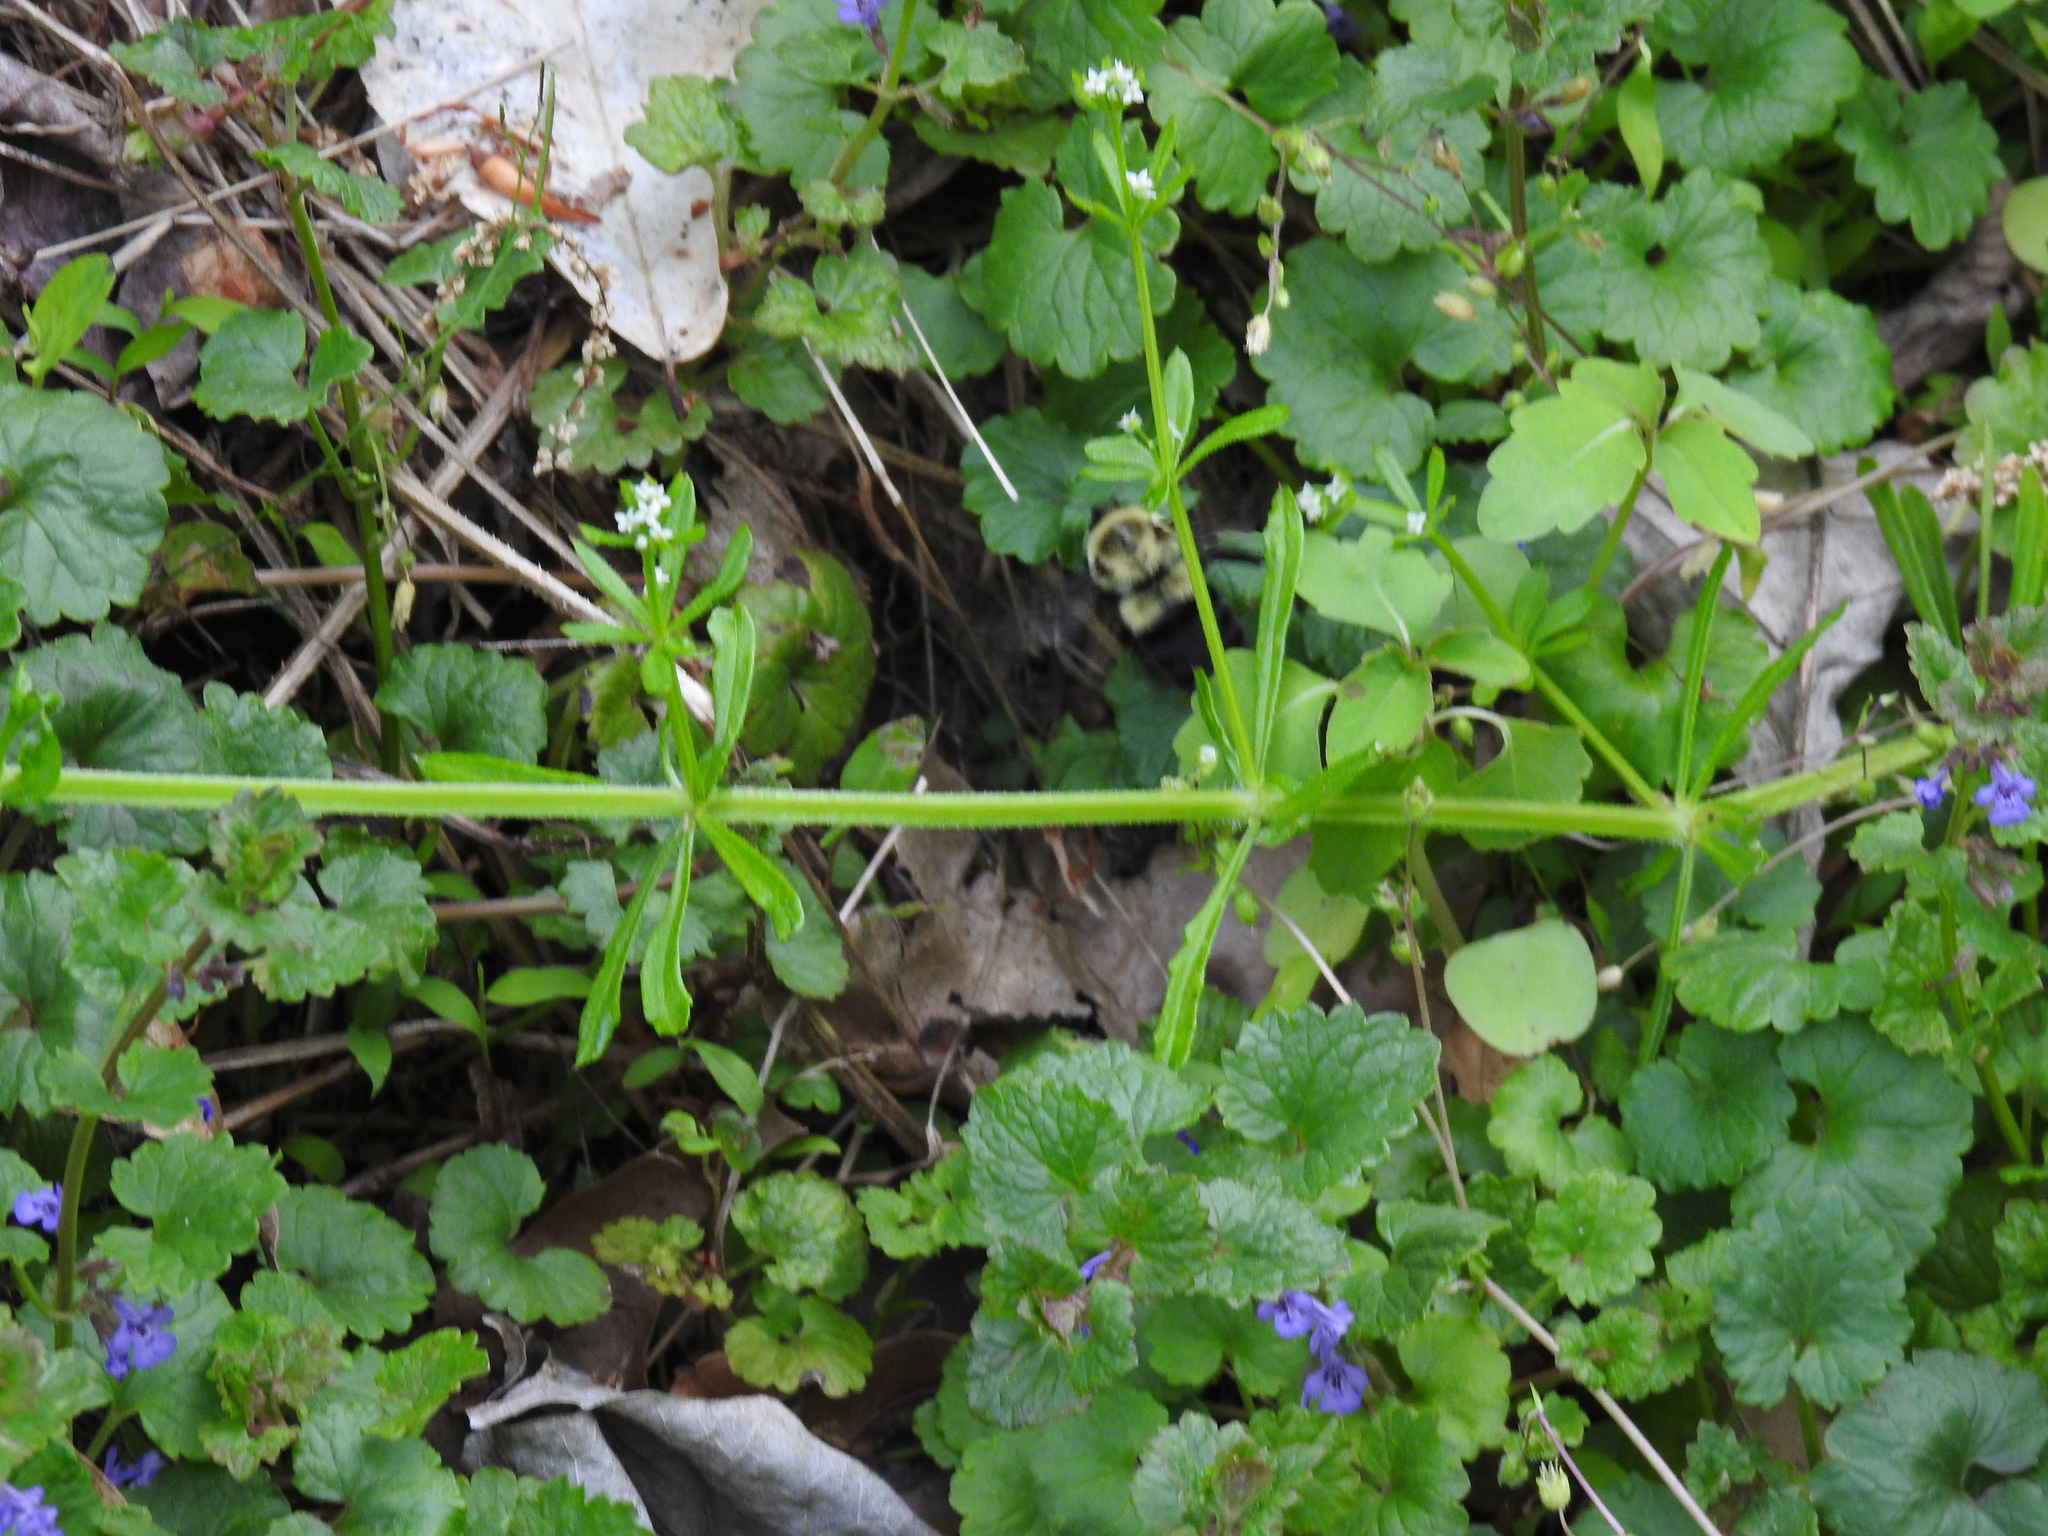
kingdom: Animalia
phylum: Arthropoda
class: Insecta
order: Hymenoptera
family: Apidae
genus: Bombus
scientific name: Bombus impatiens
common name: Common eastern bumble bee
